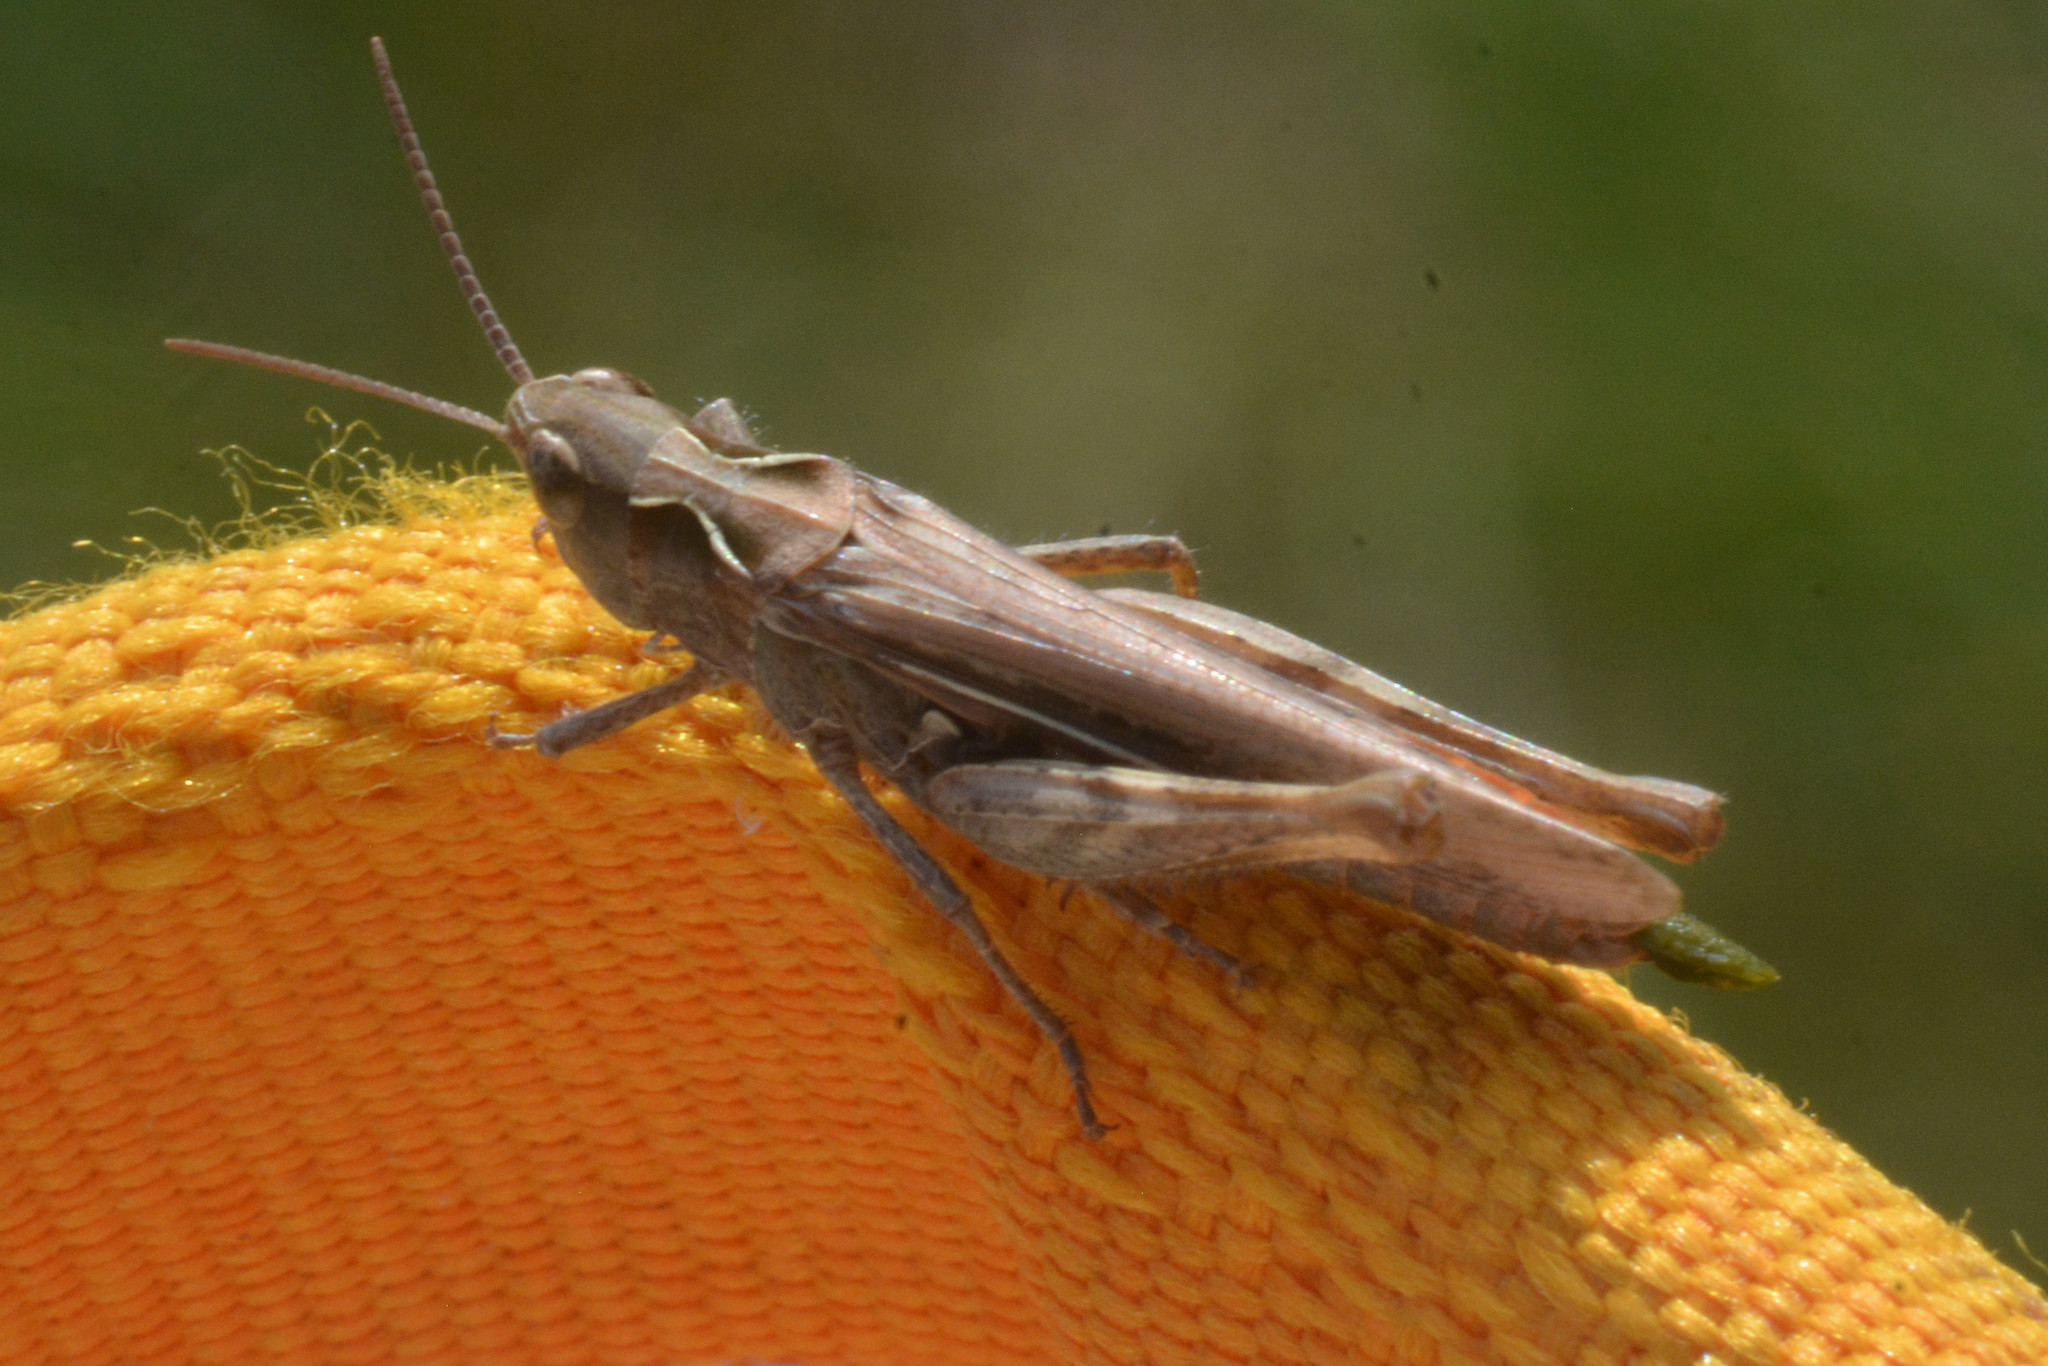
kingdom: Animalia
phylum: Arthropoda
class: Insecta
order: Orthoptera
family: Acrididae
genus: Chorthippus
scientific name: Chorthippus brunneus
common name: Field grasshopper
